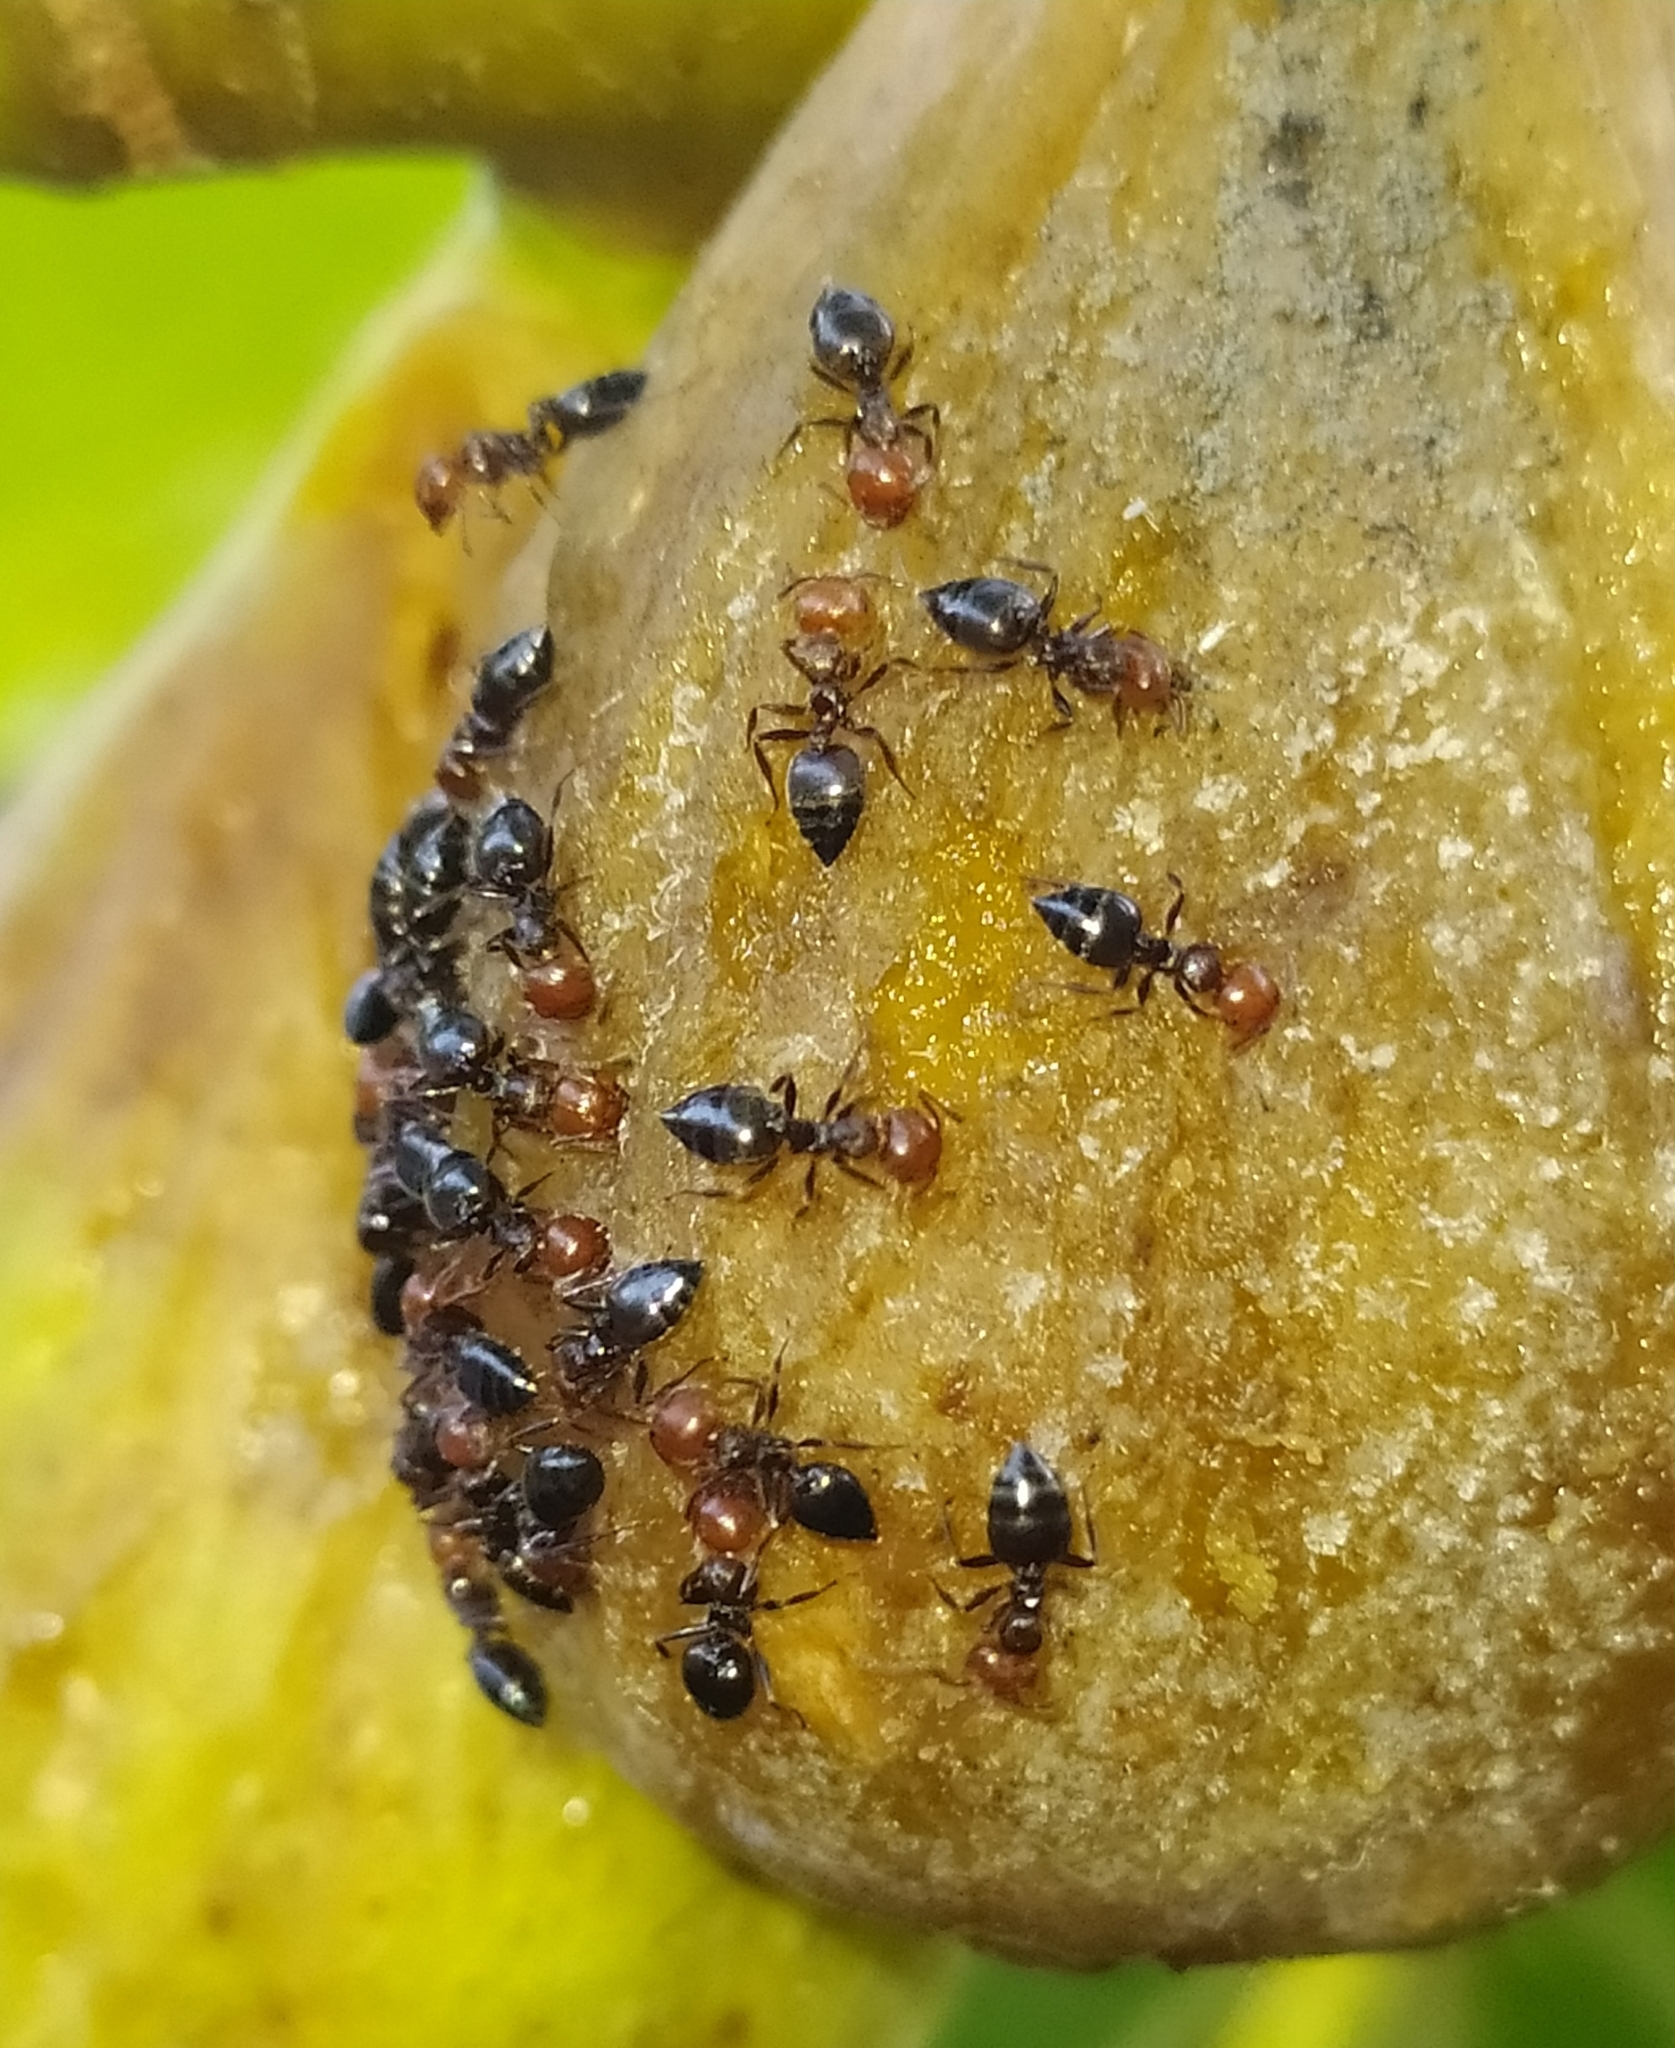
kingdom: Animalia
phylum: Arthropoda
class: Insecta
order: Hymenoptera
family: Formicidae
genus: Crematogaster
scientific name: Crematogaster scutellaris
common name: Fourmi du liège
